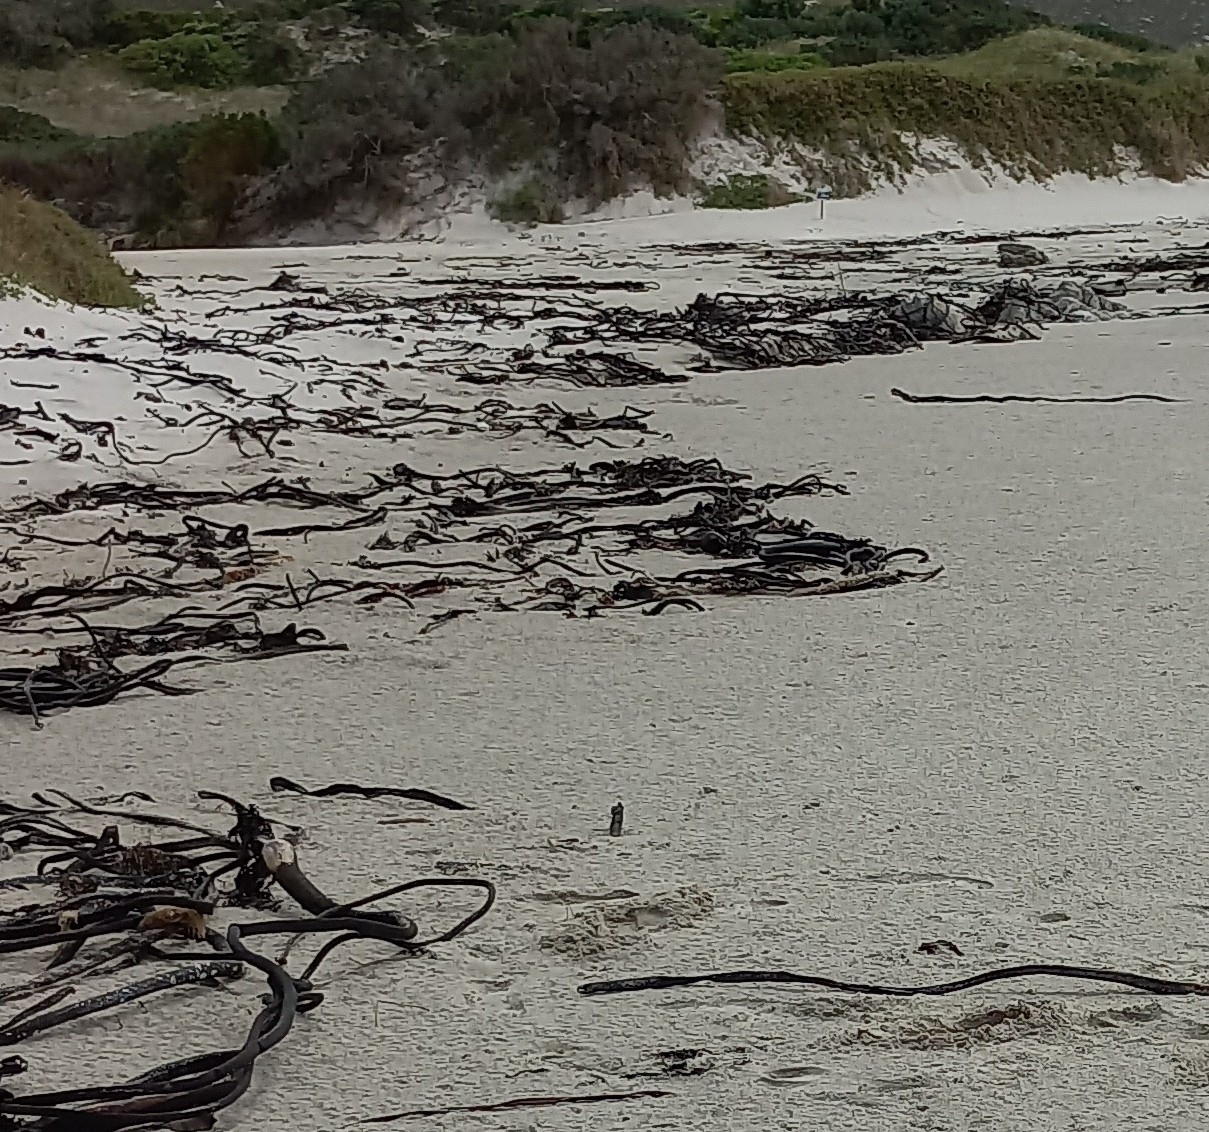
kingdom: Chromista
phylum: Ochrophyta
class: Phaeophyceae
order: Laminariales
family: Lessoniaceae
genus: Ecklonia
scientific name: Ecklonia
